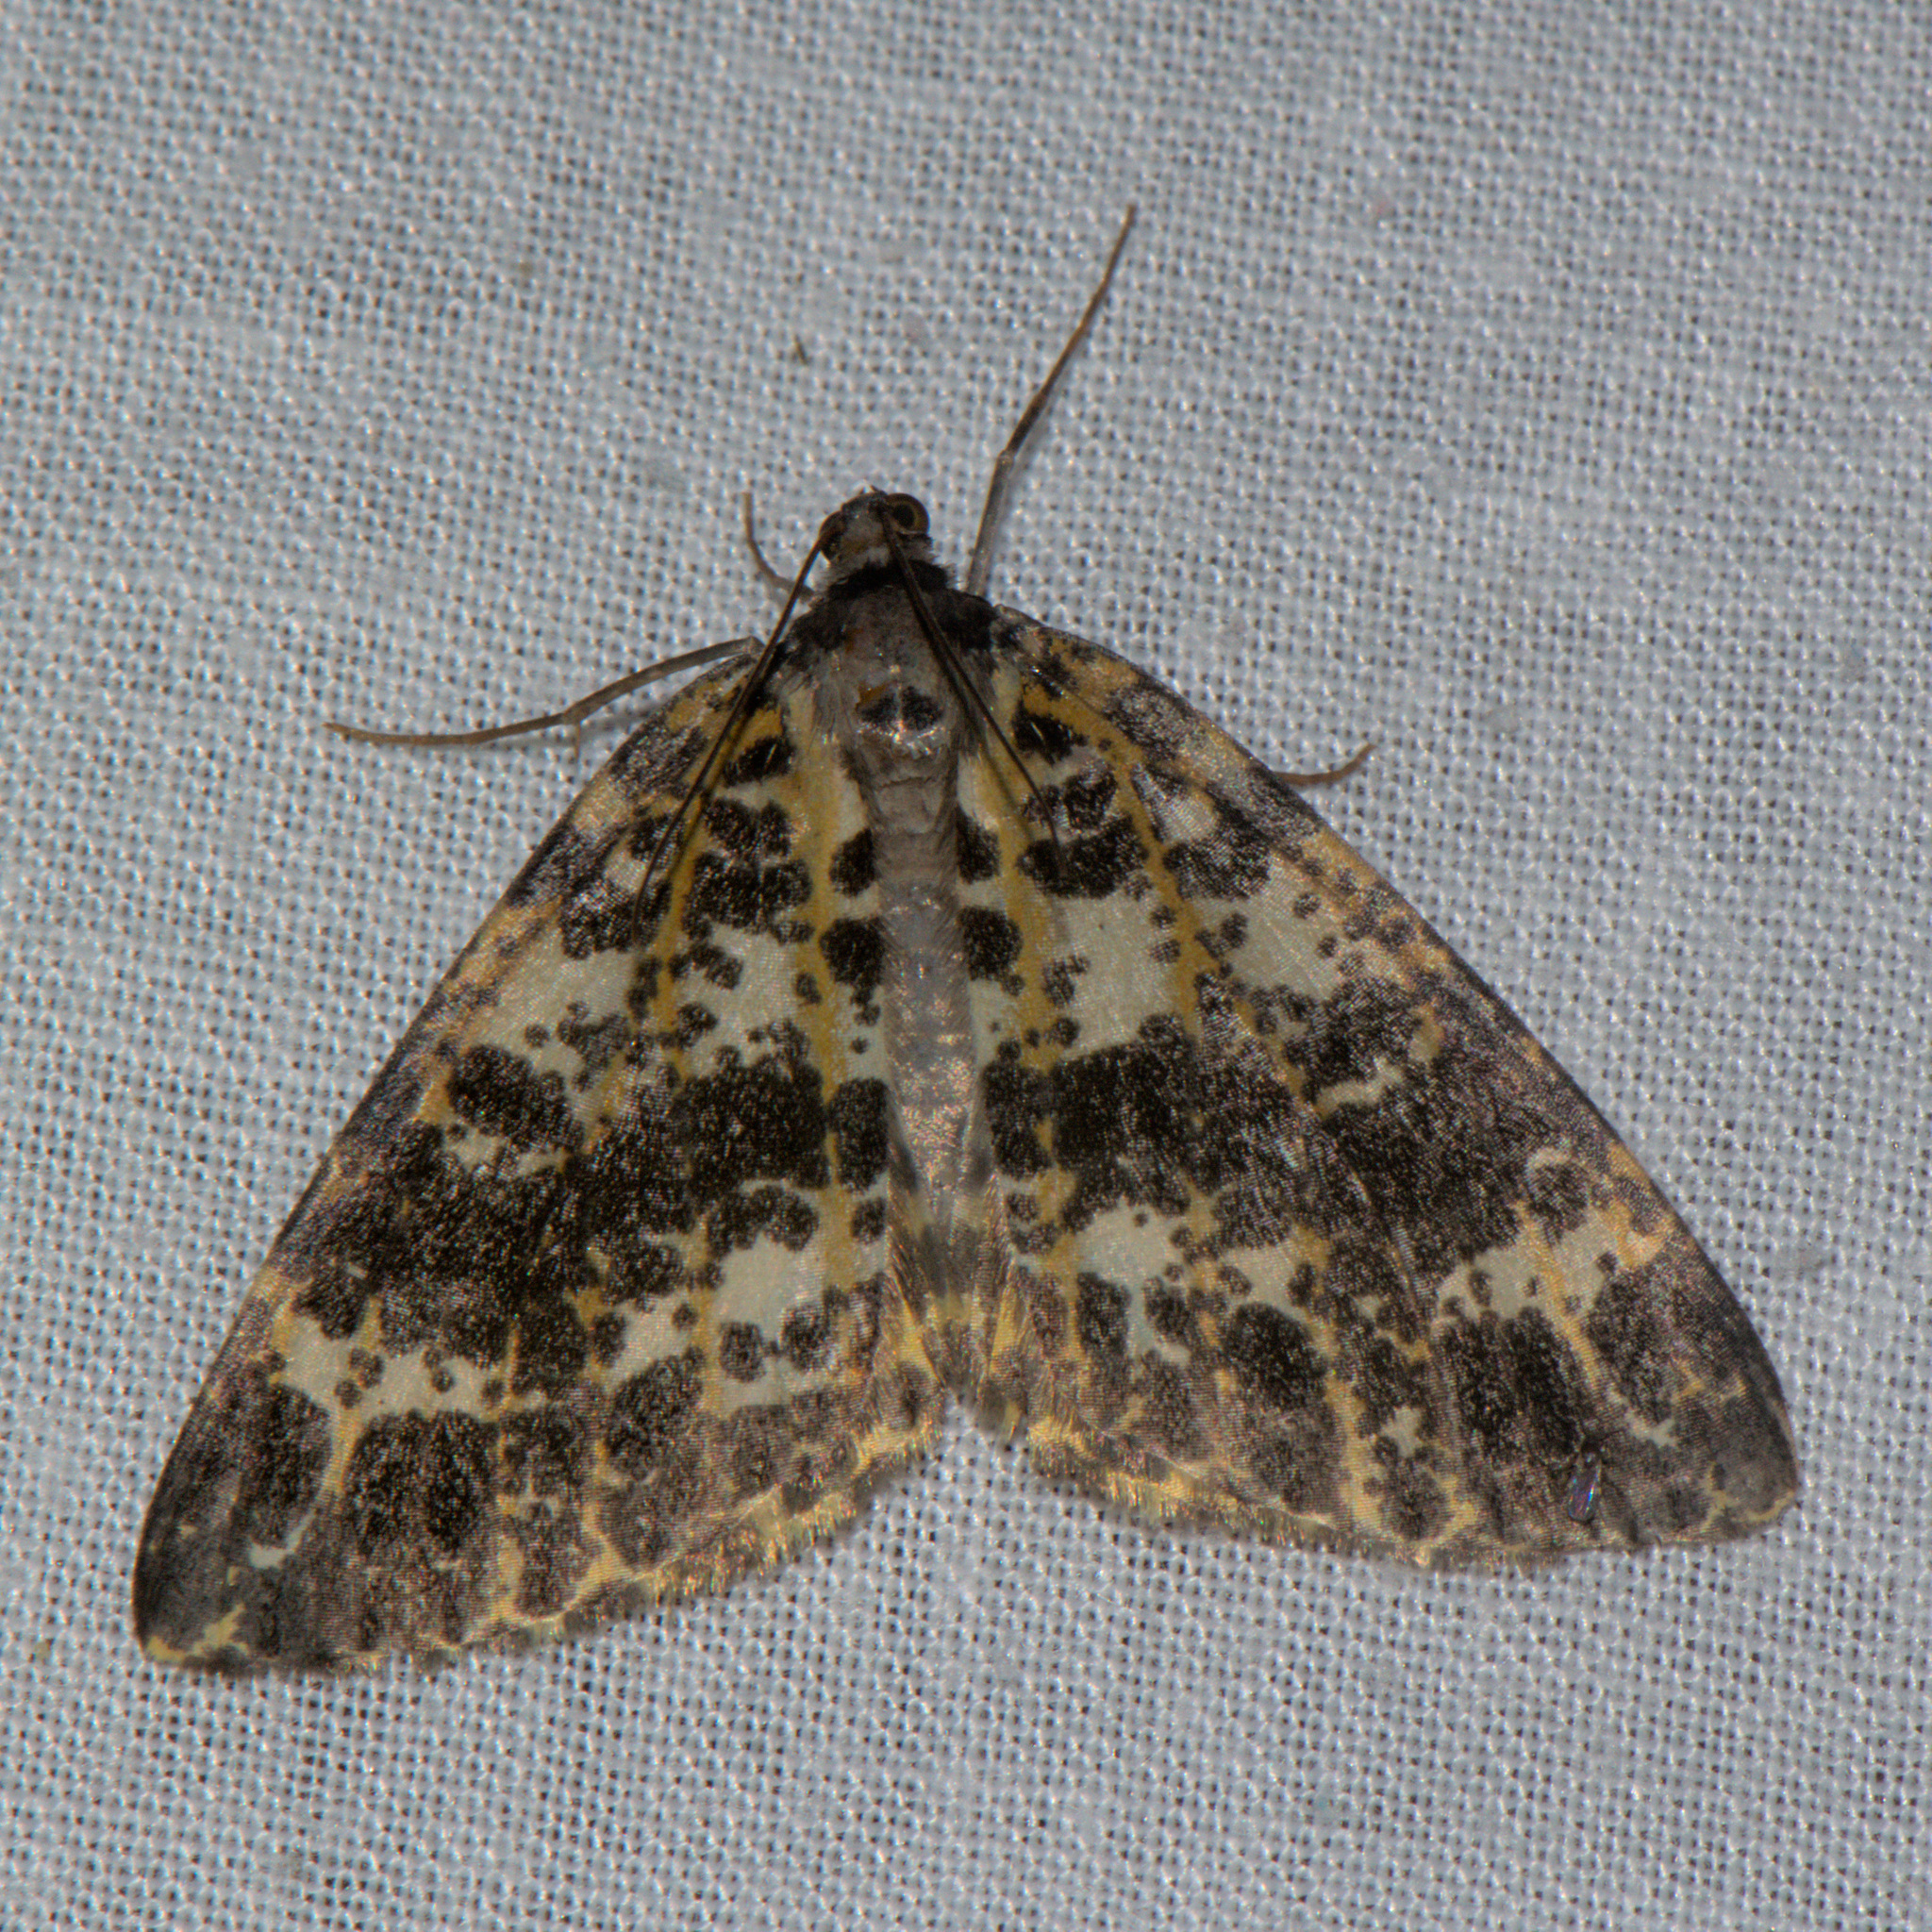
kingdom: Animalia
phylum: Arthropoda
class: Insecta
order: Lepidoptera
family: Geometridae
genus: Arichanna
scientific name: Arichanna sparsa
